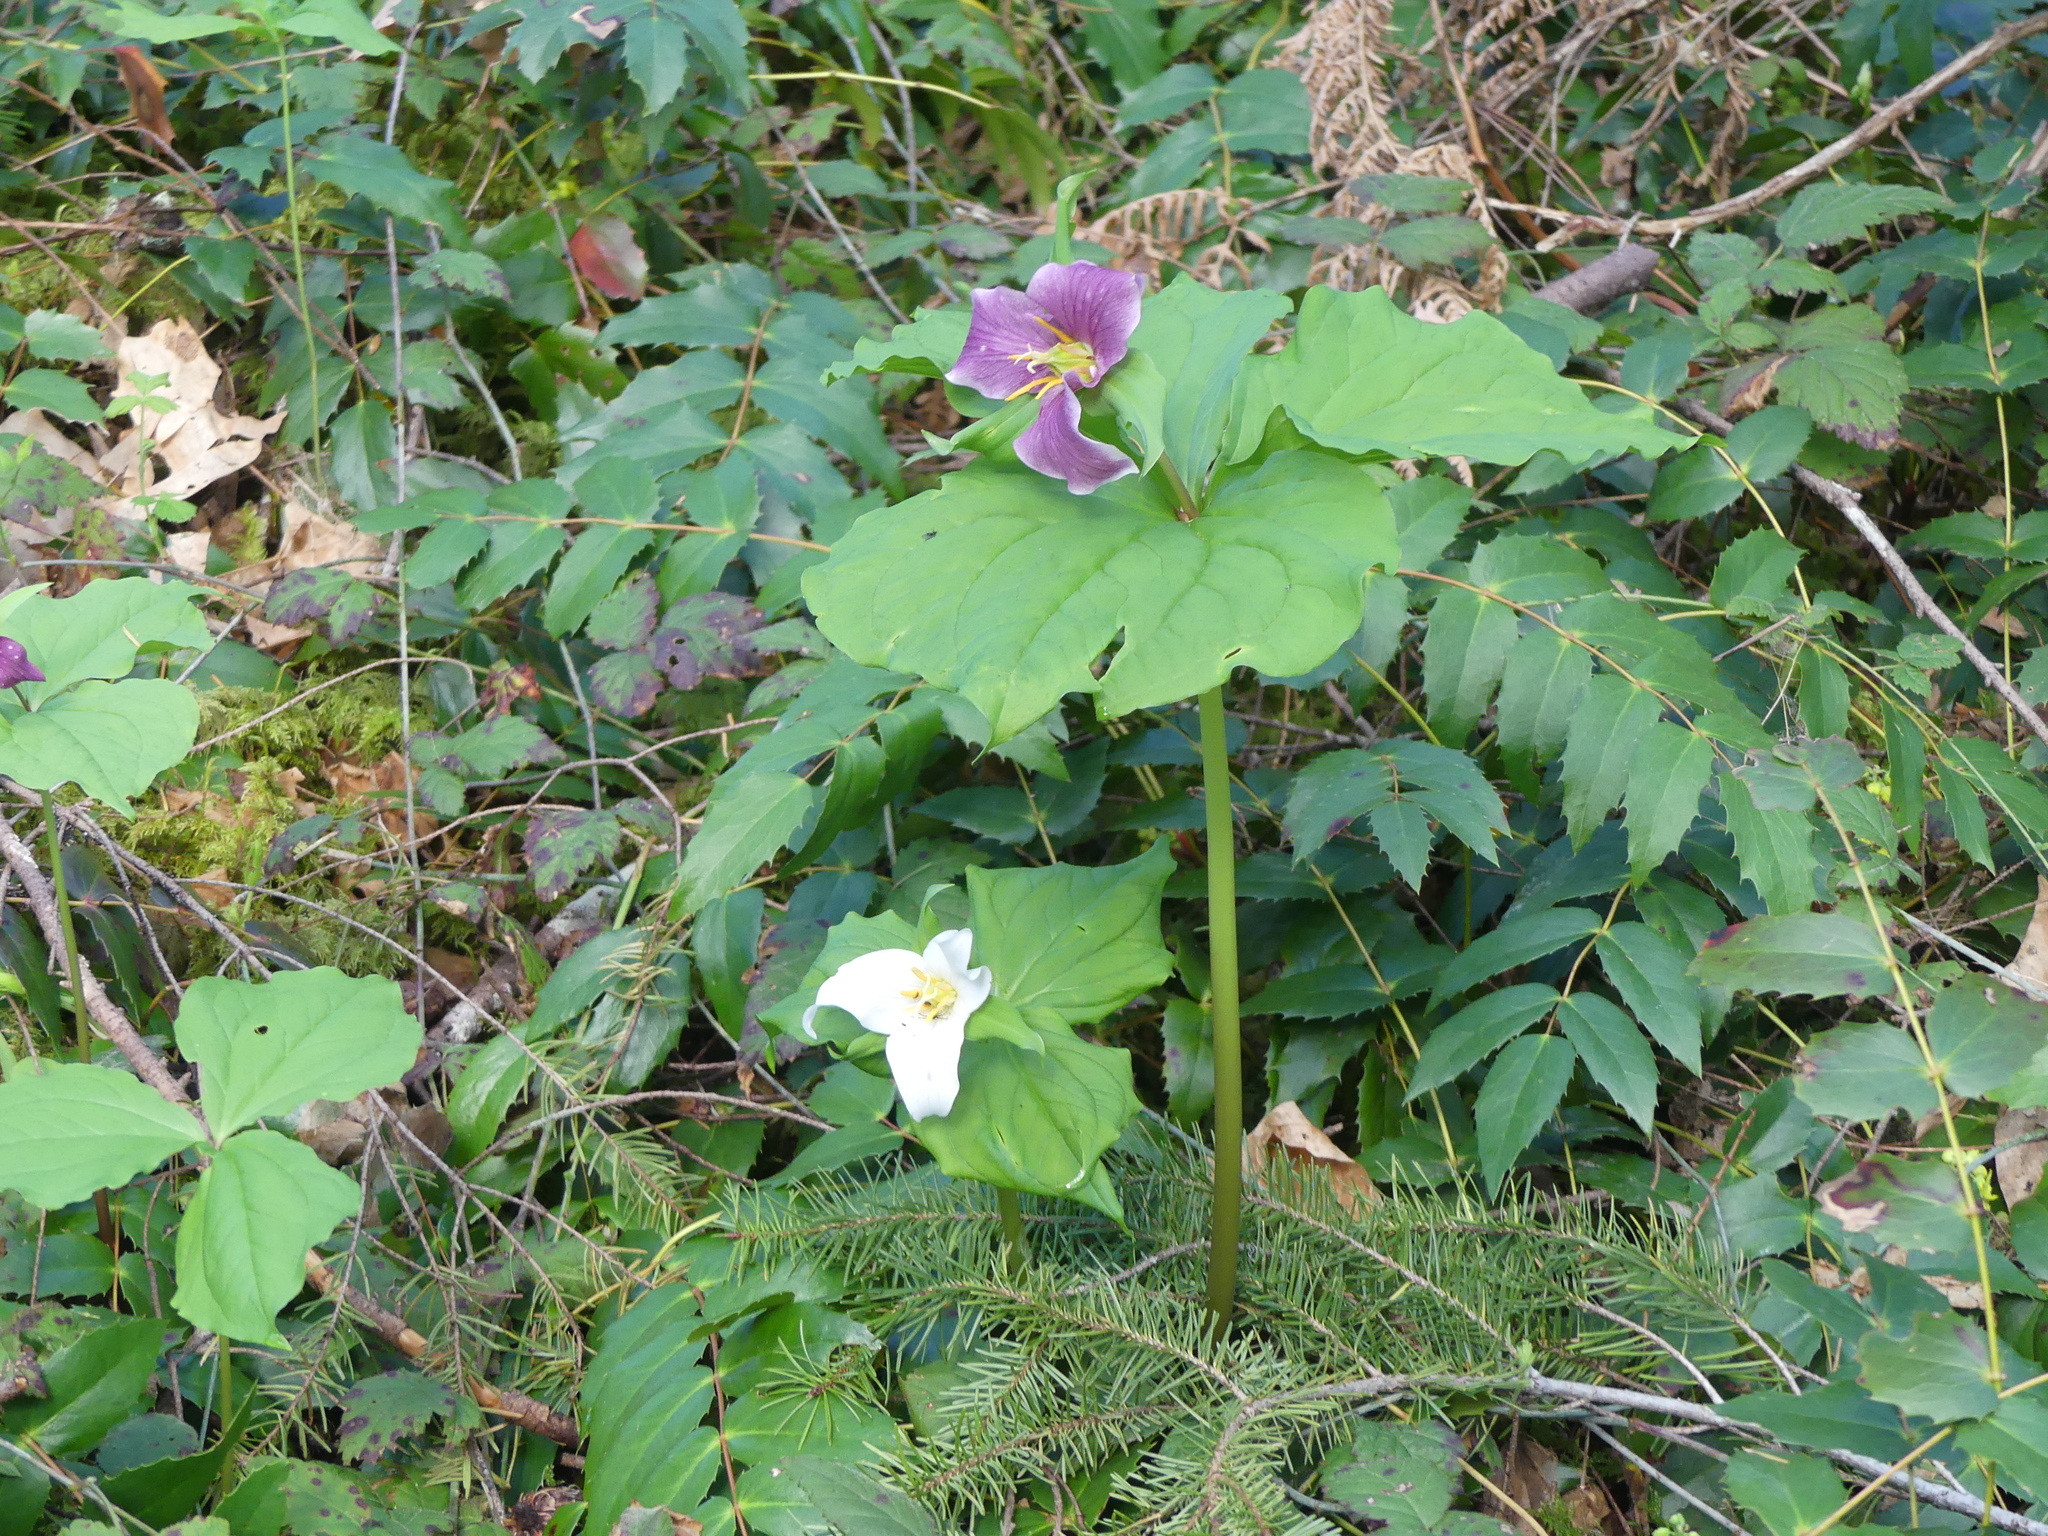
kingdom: Plantae
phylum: Tracheophyta
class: Liliopsida
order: Liliales
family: Melanthiaceae
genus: Trillium
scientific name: Trillium ovatum
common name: Pacific trillium
